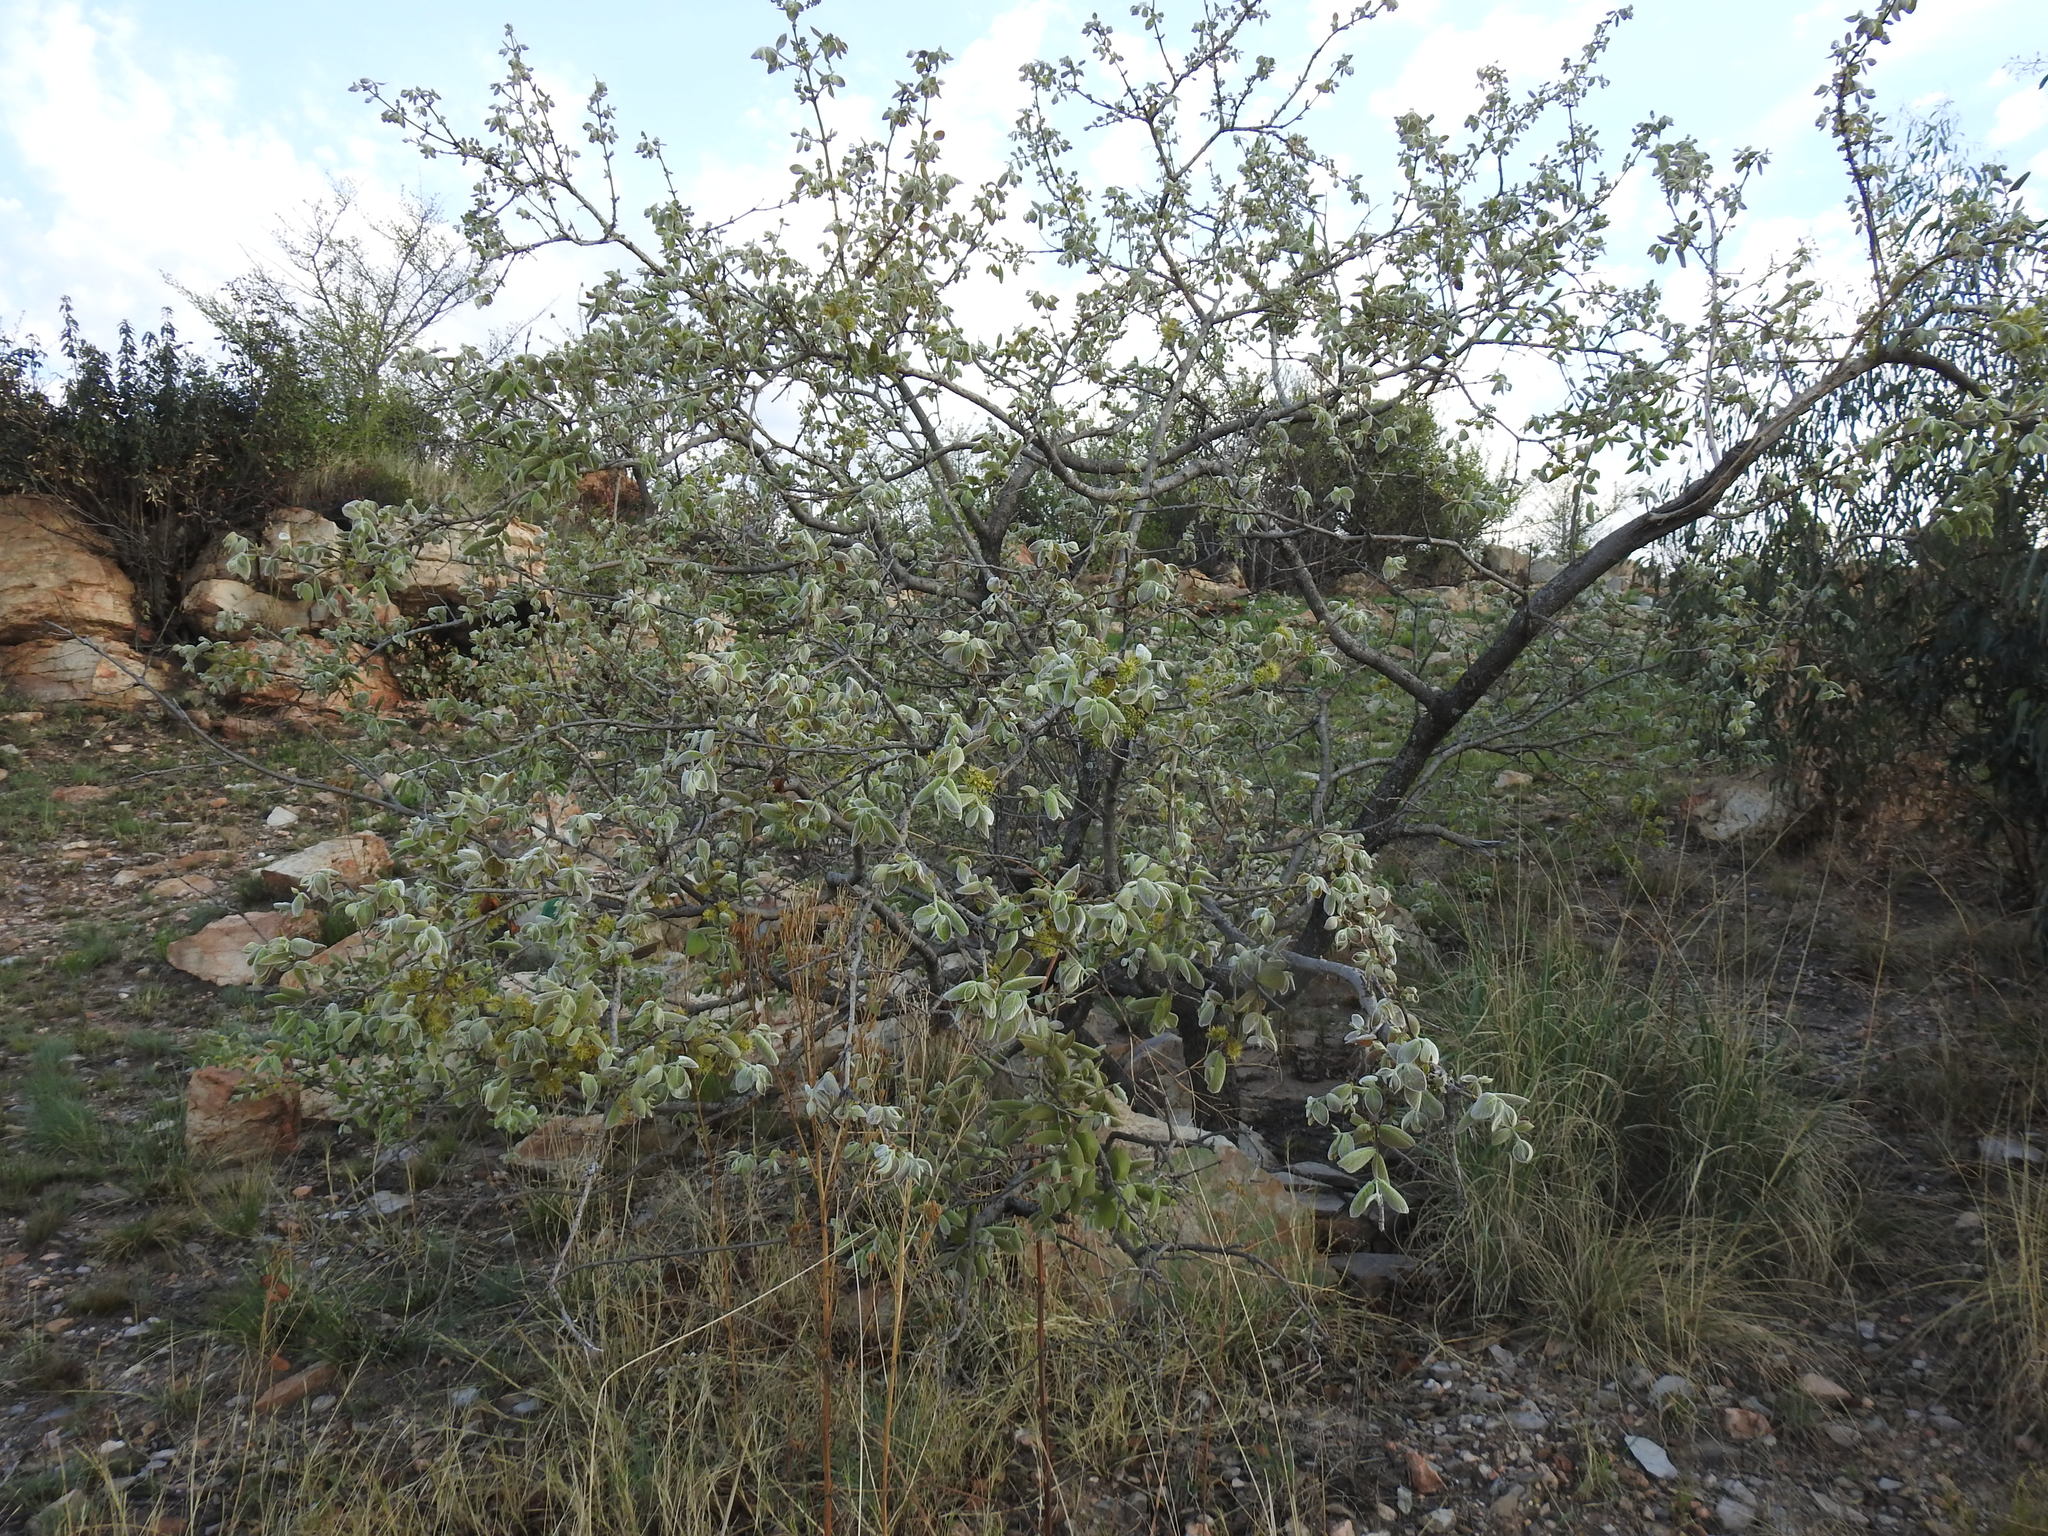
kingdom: Plantae
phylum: Tracheophyta
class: Magnoliopsida
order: Myrtales
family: Combretaceae
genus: Combretum
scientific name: Combretum molle
